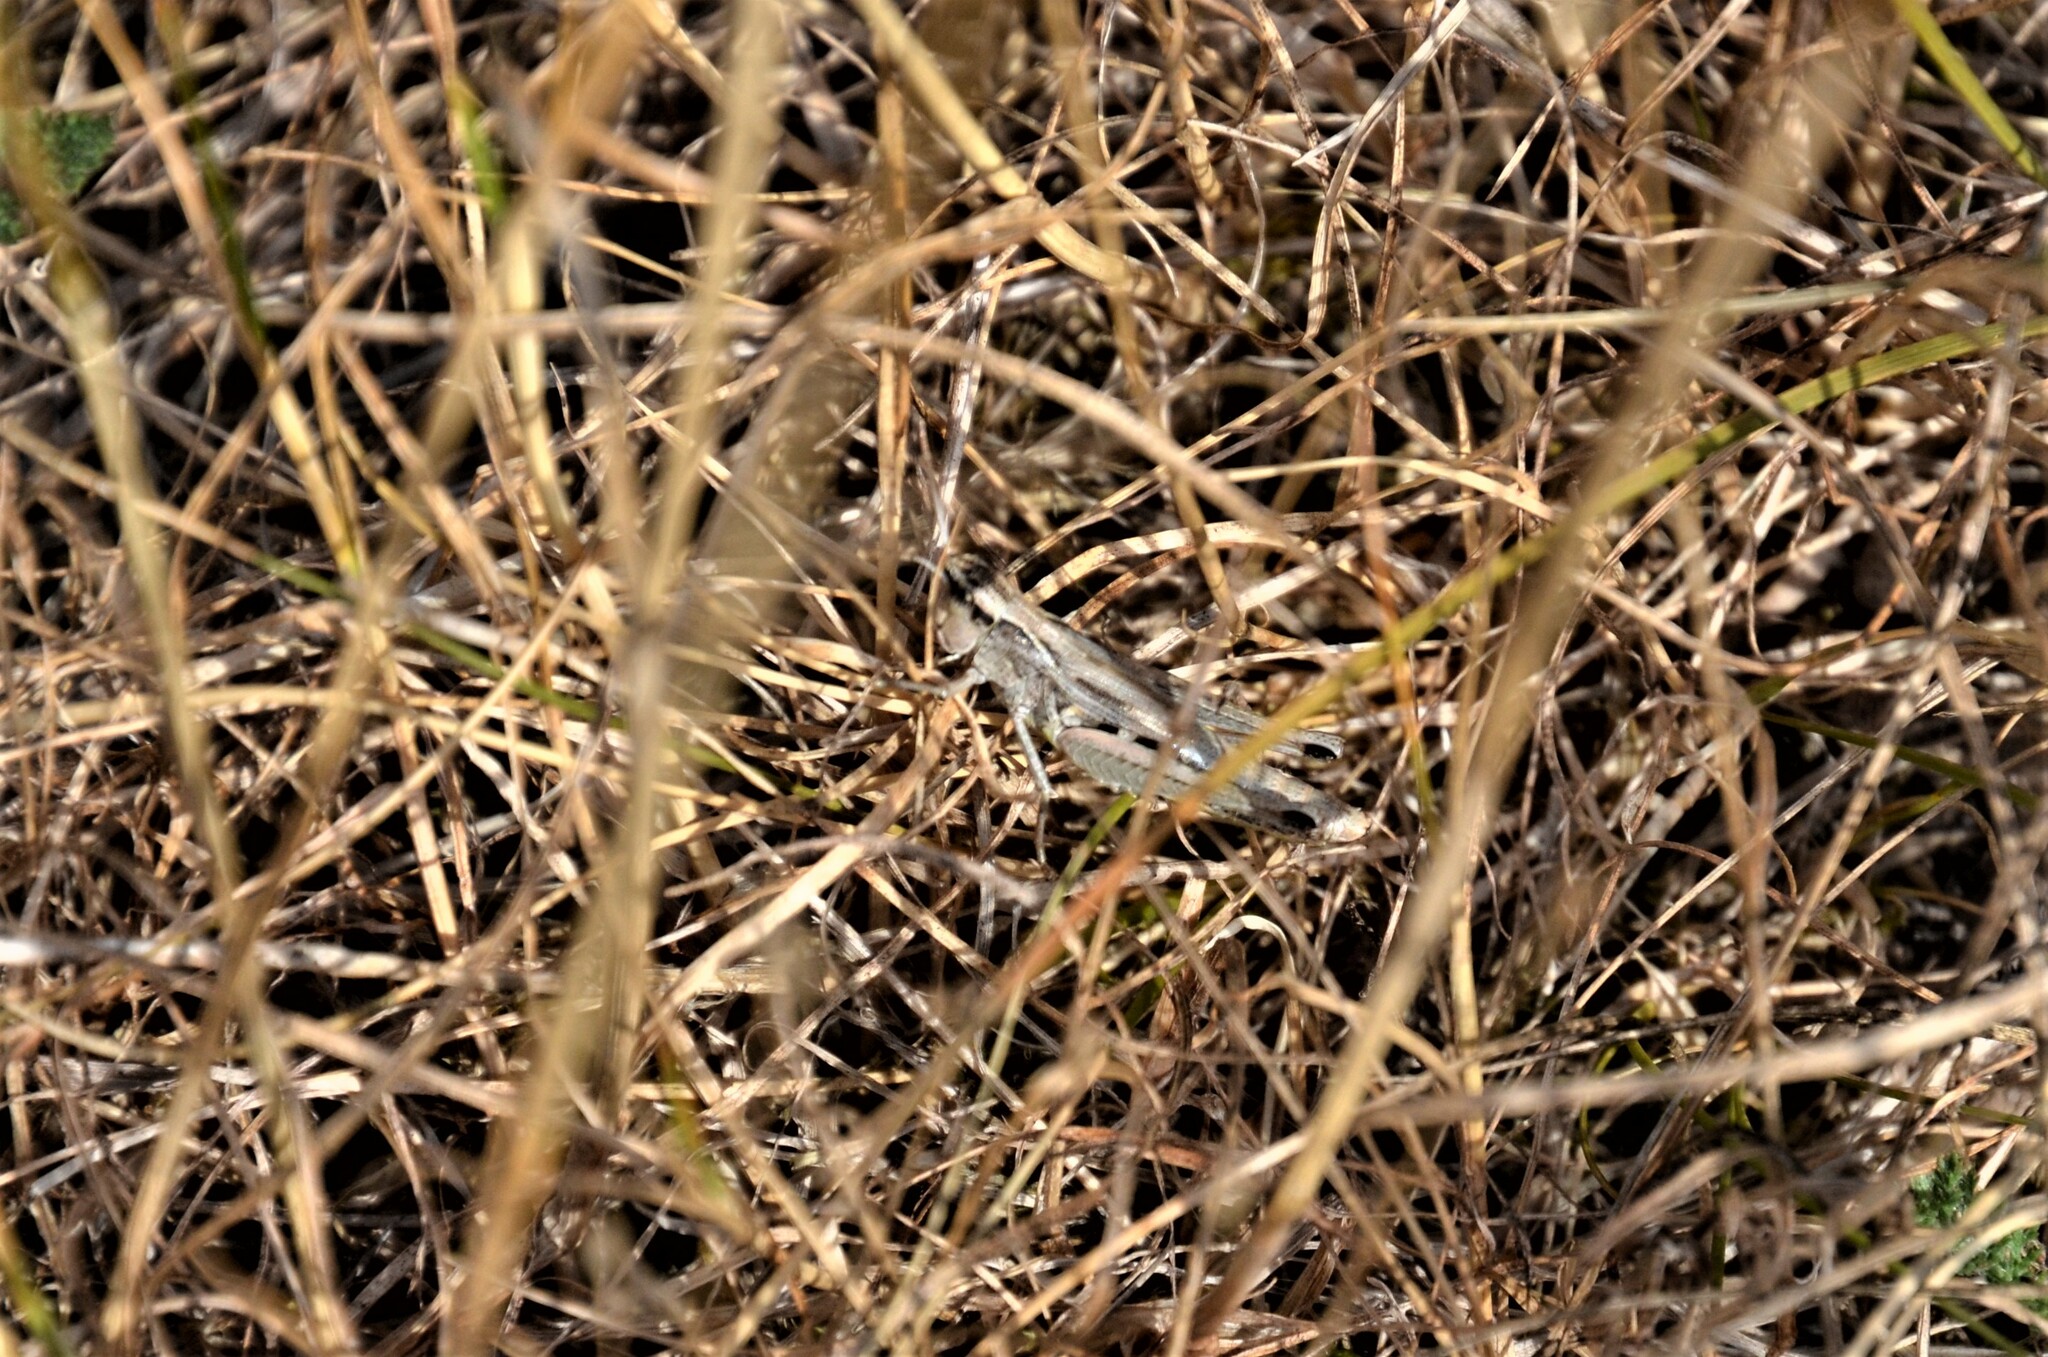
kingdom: Animalia
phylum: Arthropoda
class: Insecta
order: Orthoptera
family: Acrididae
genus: Pseudochorthippus
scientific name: Pseudochorthippus parallelus
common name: Meadow grasshopper
